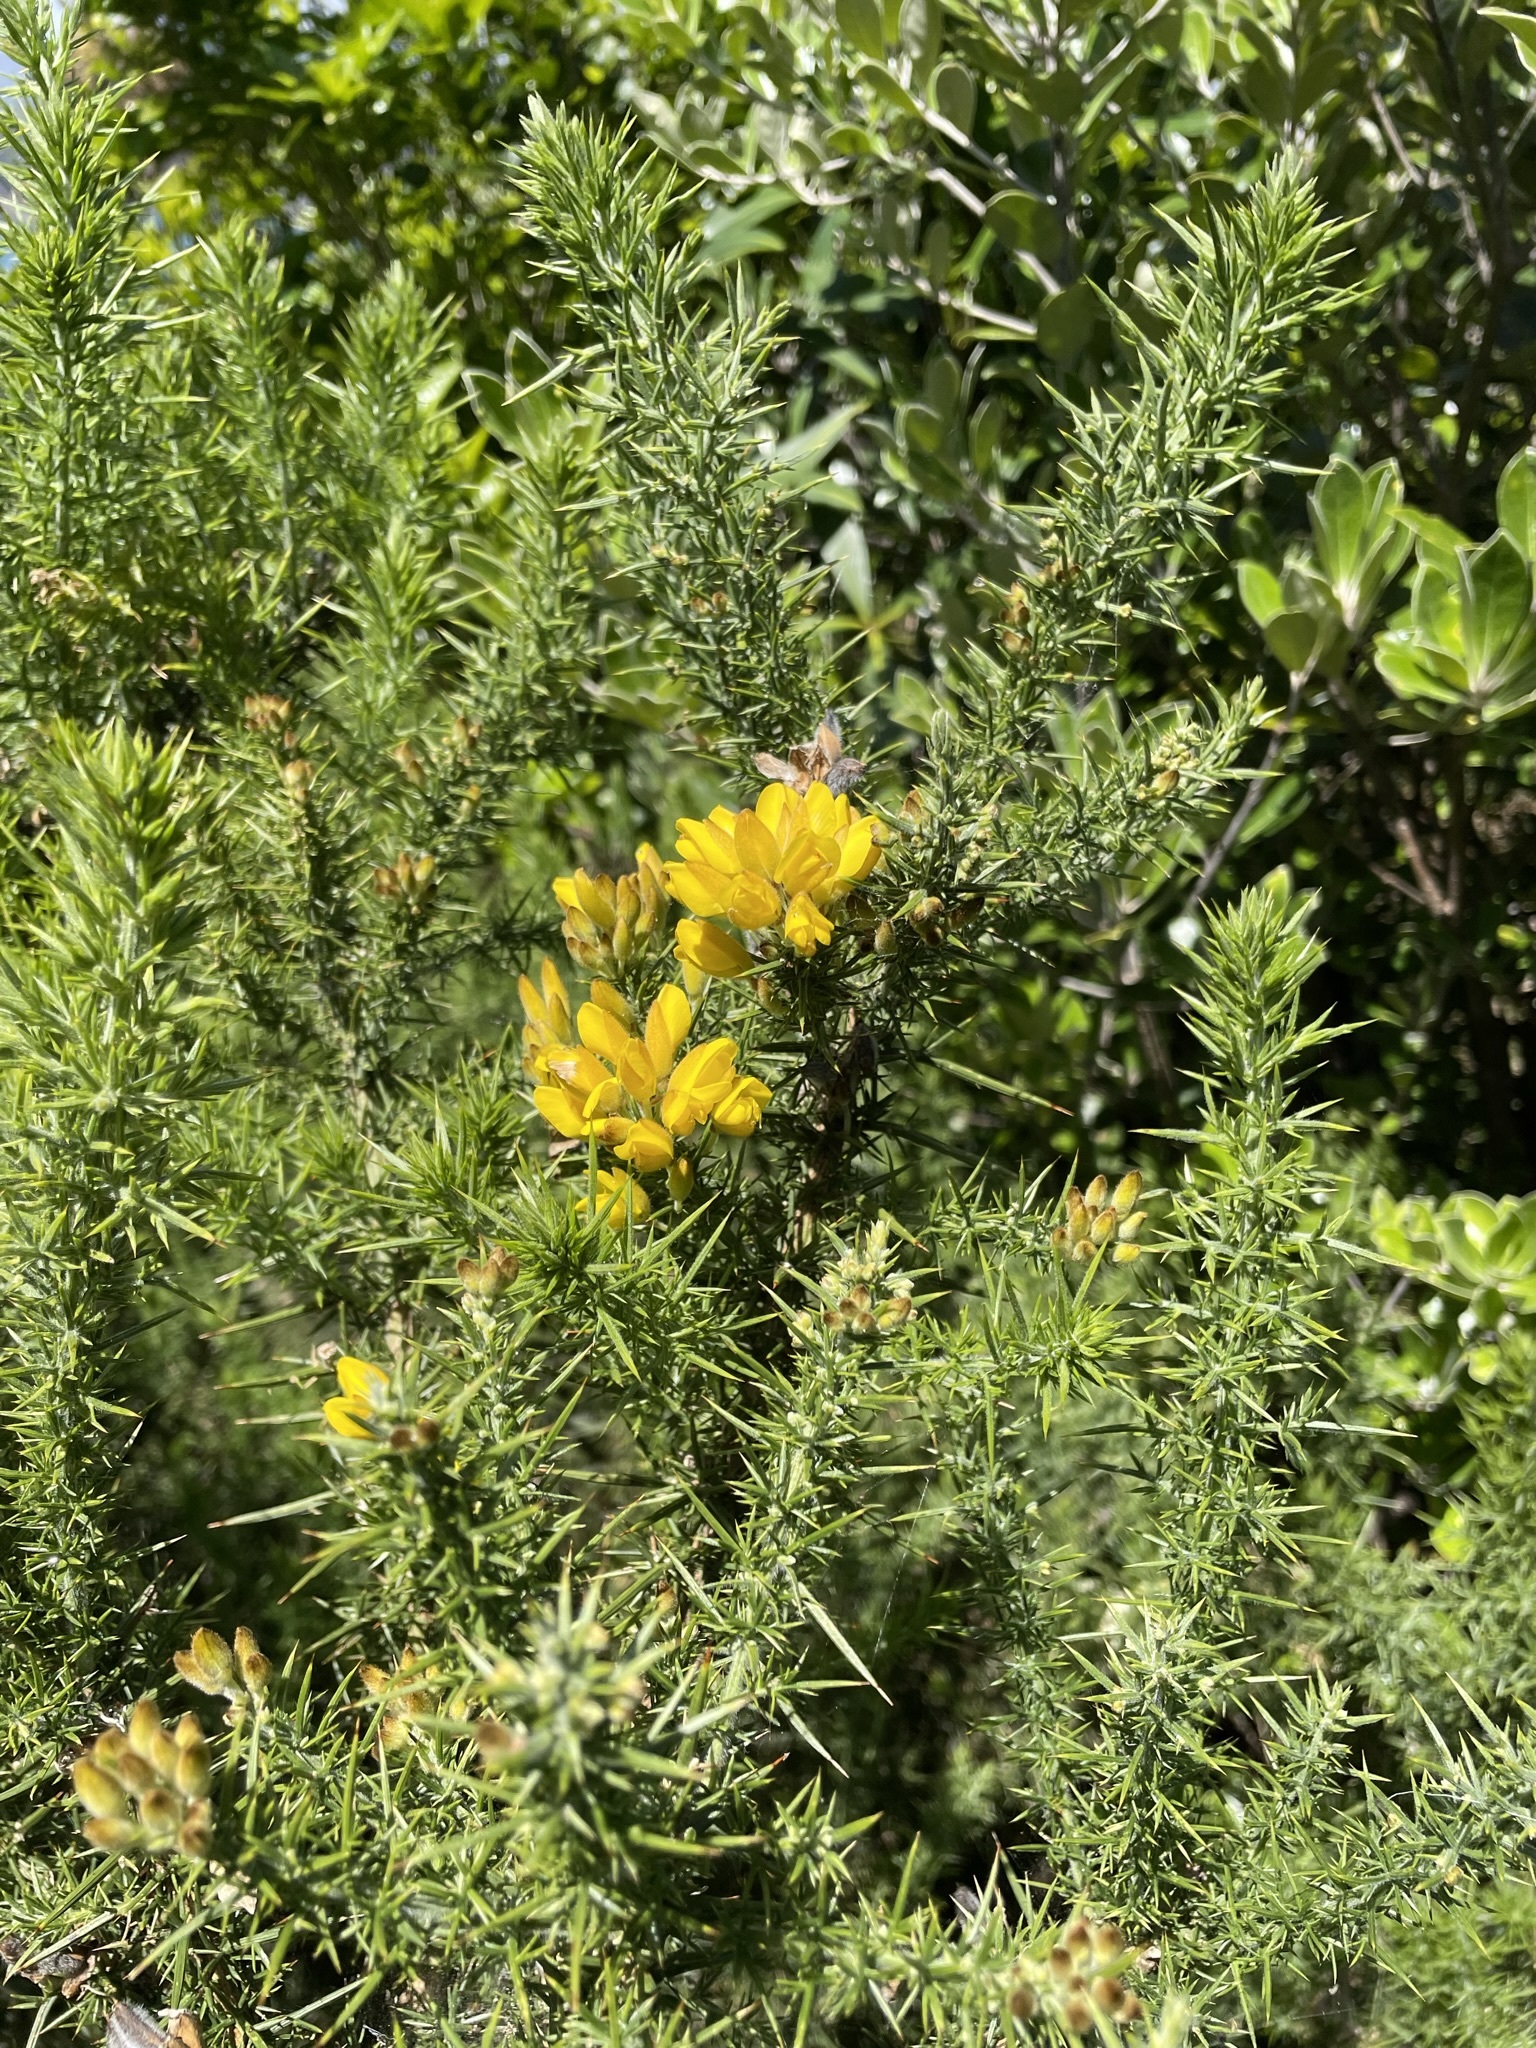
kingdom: Plantae
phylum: Tracheophyta
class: Magnoliopsida
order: Fabales
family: Fabaceae
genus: Ulex
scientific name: Ulex europaeus
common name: Common gorse
